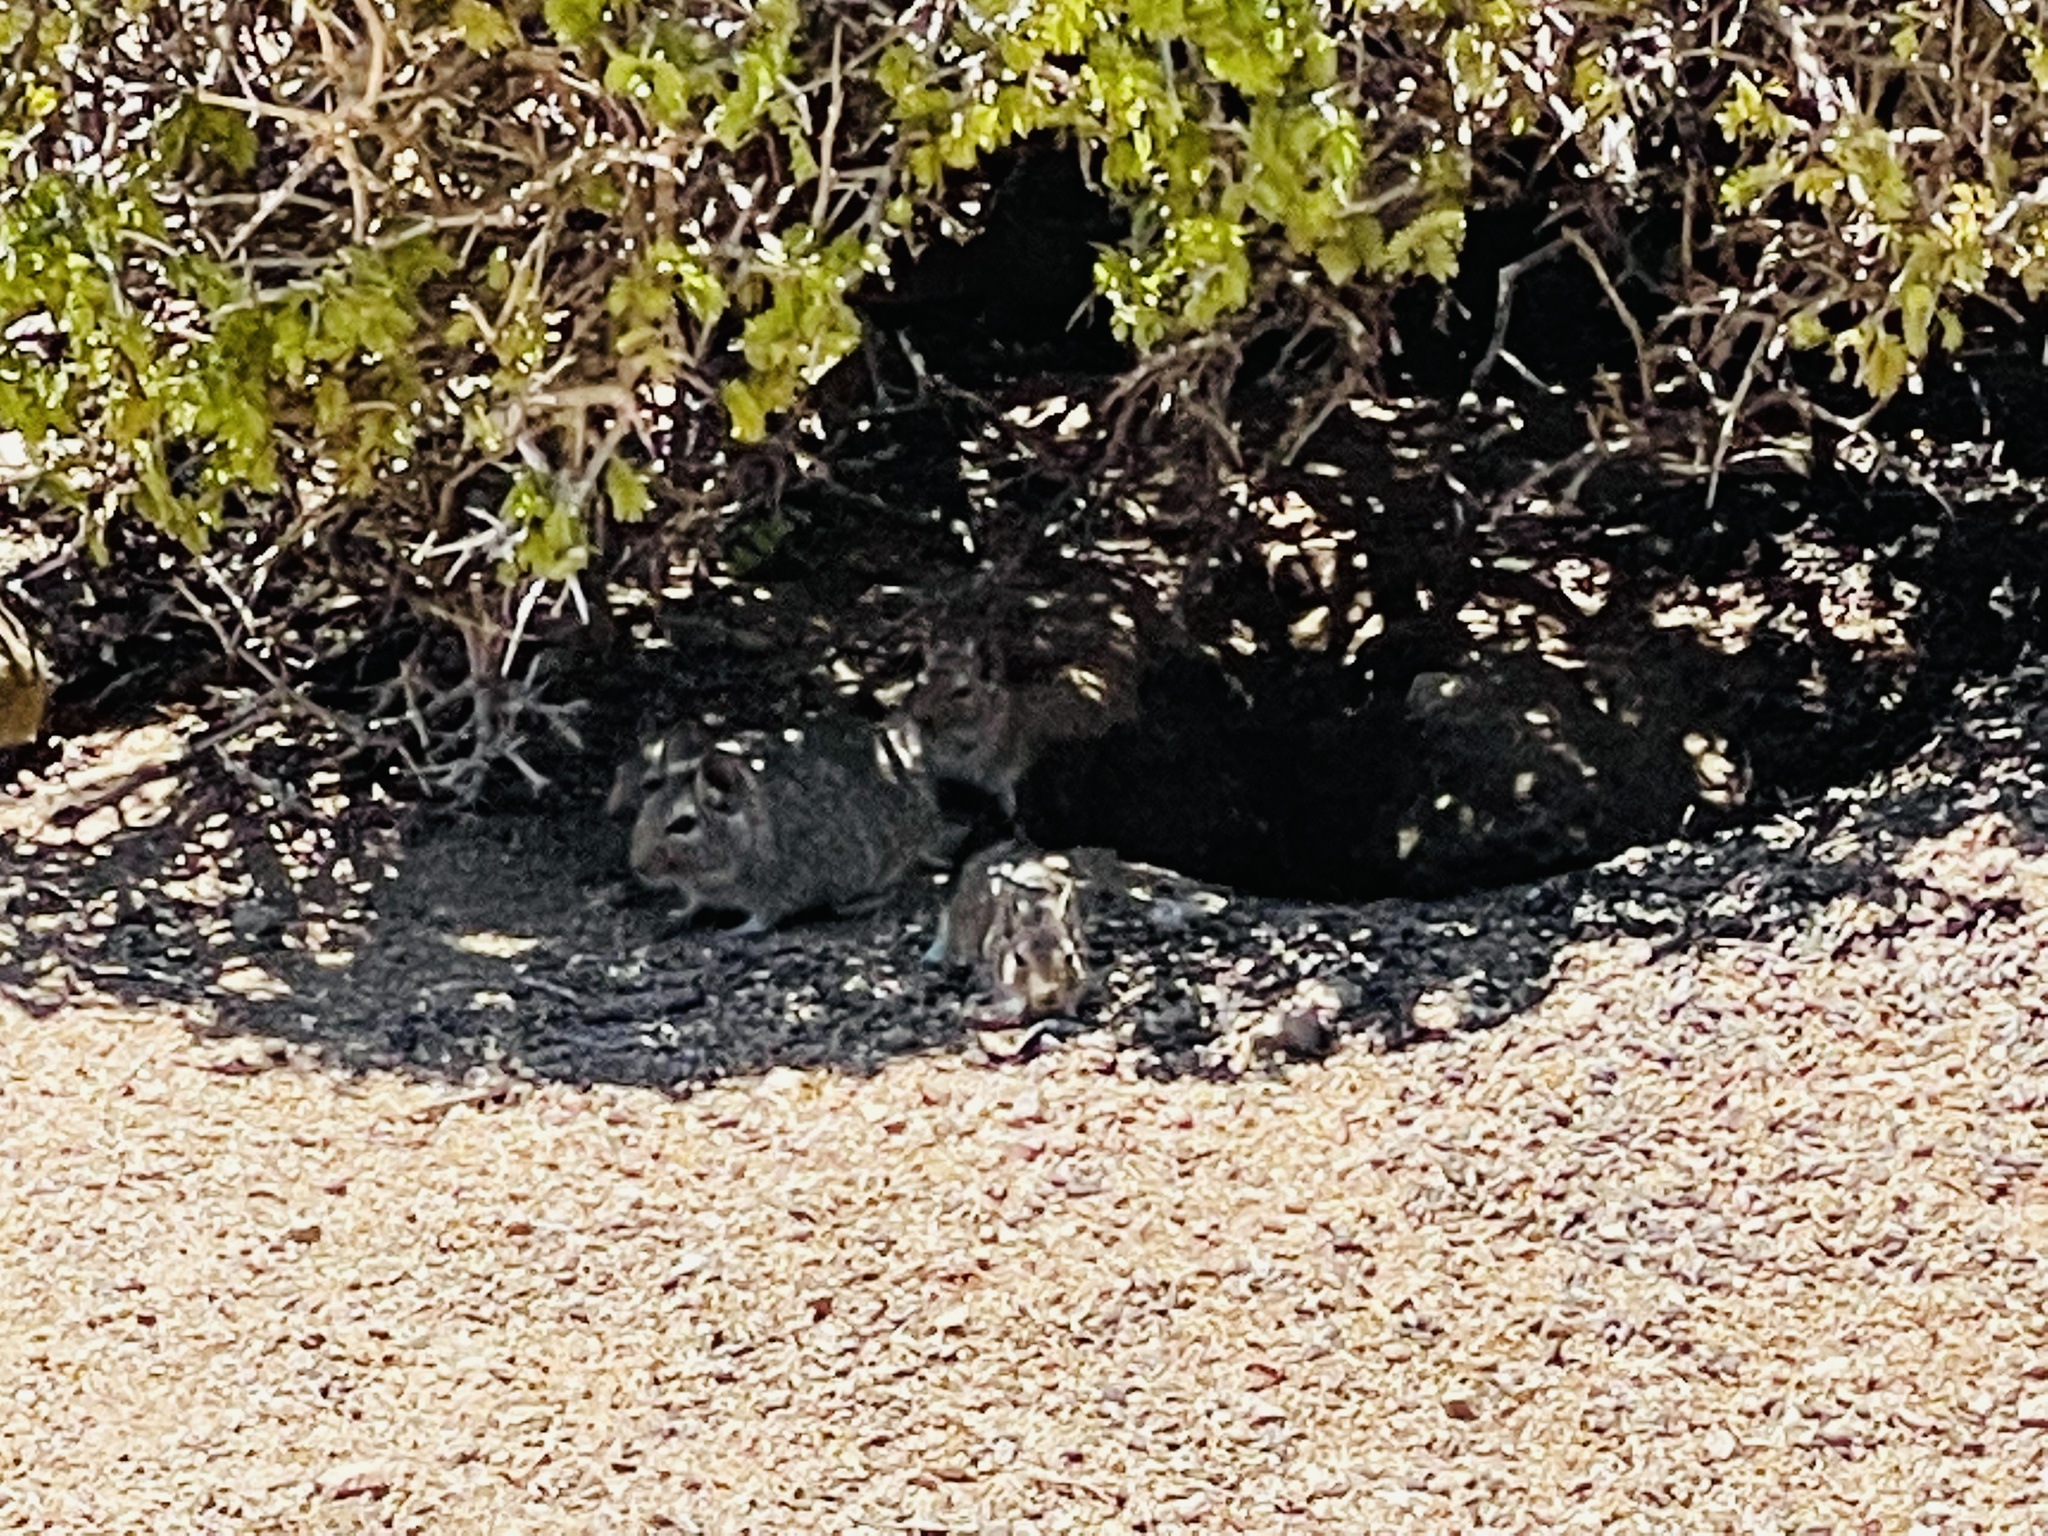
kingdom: Animalia
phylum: Chordata
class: Mammalia
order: Rodentia
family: Octodontidae
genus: Octodon
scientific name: Octodon degus
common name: Degu
